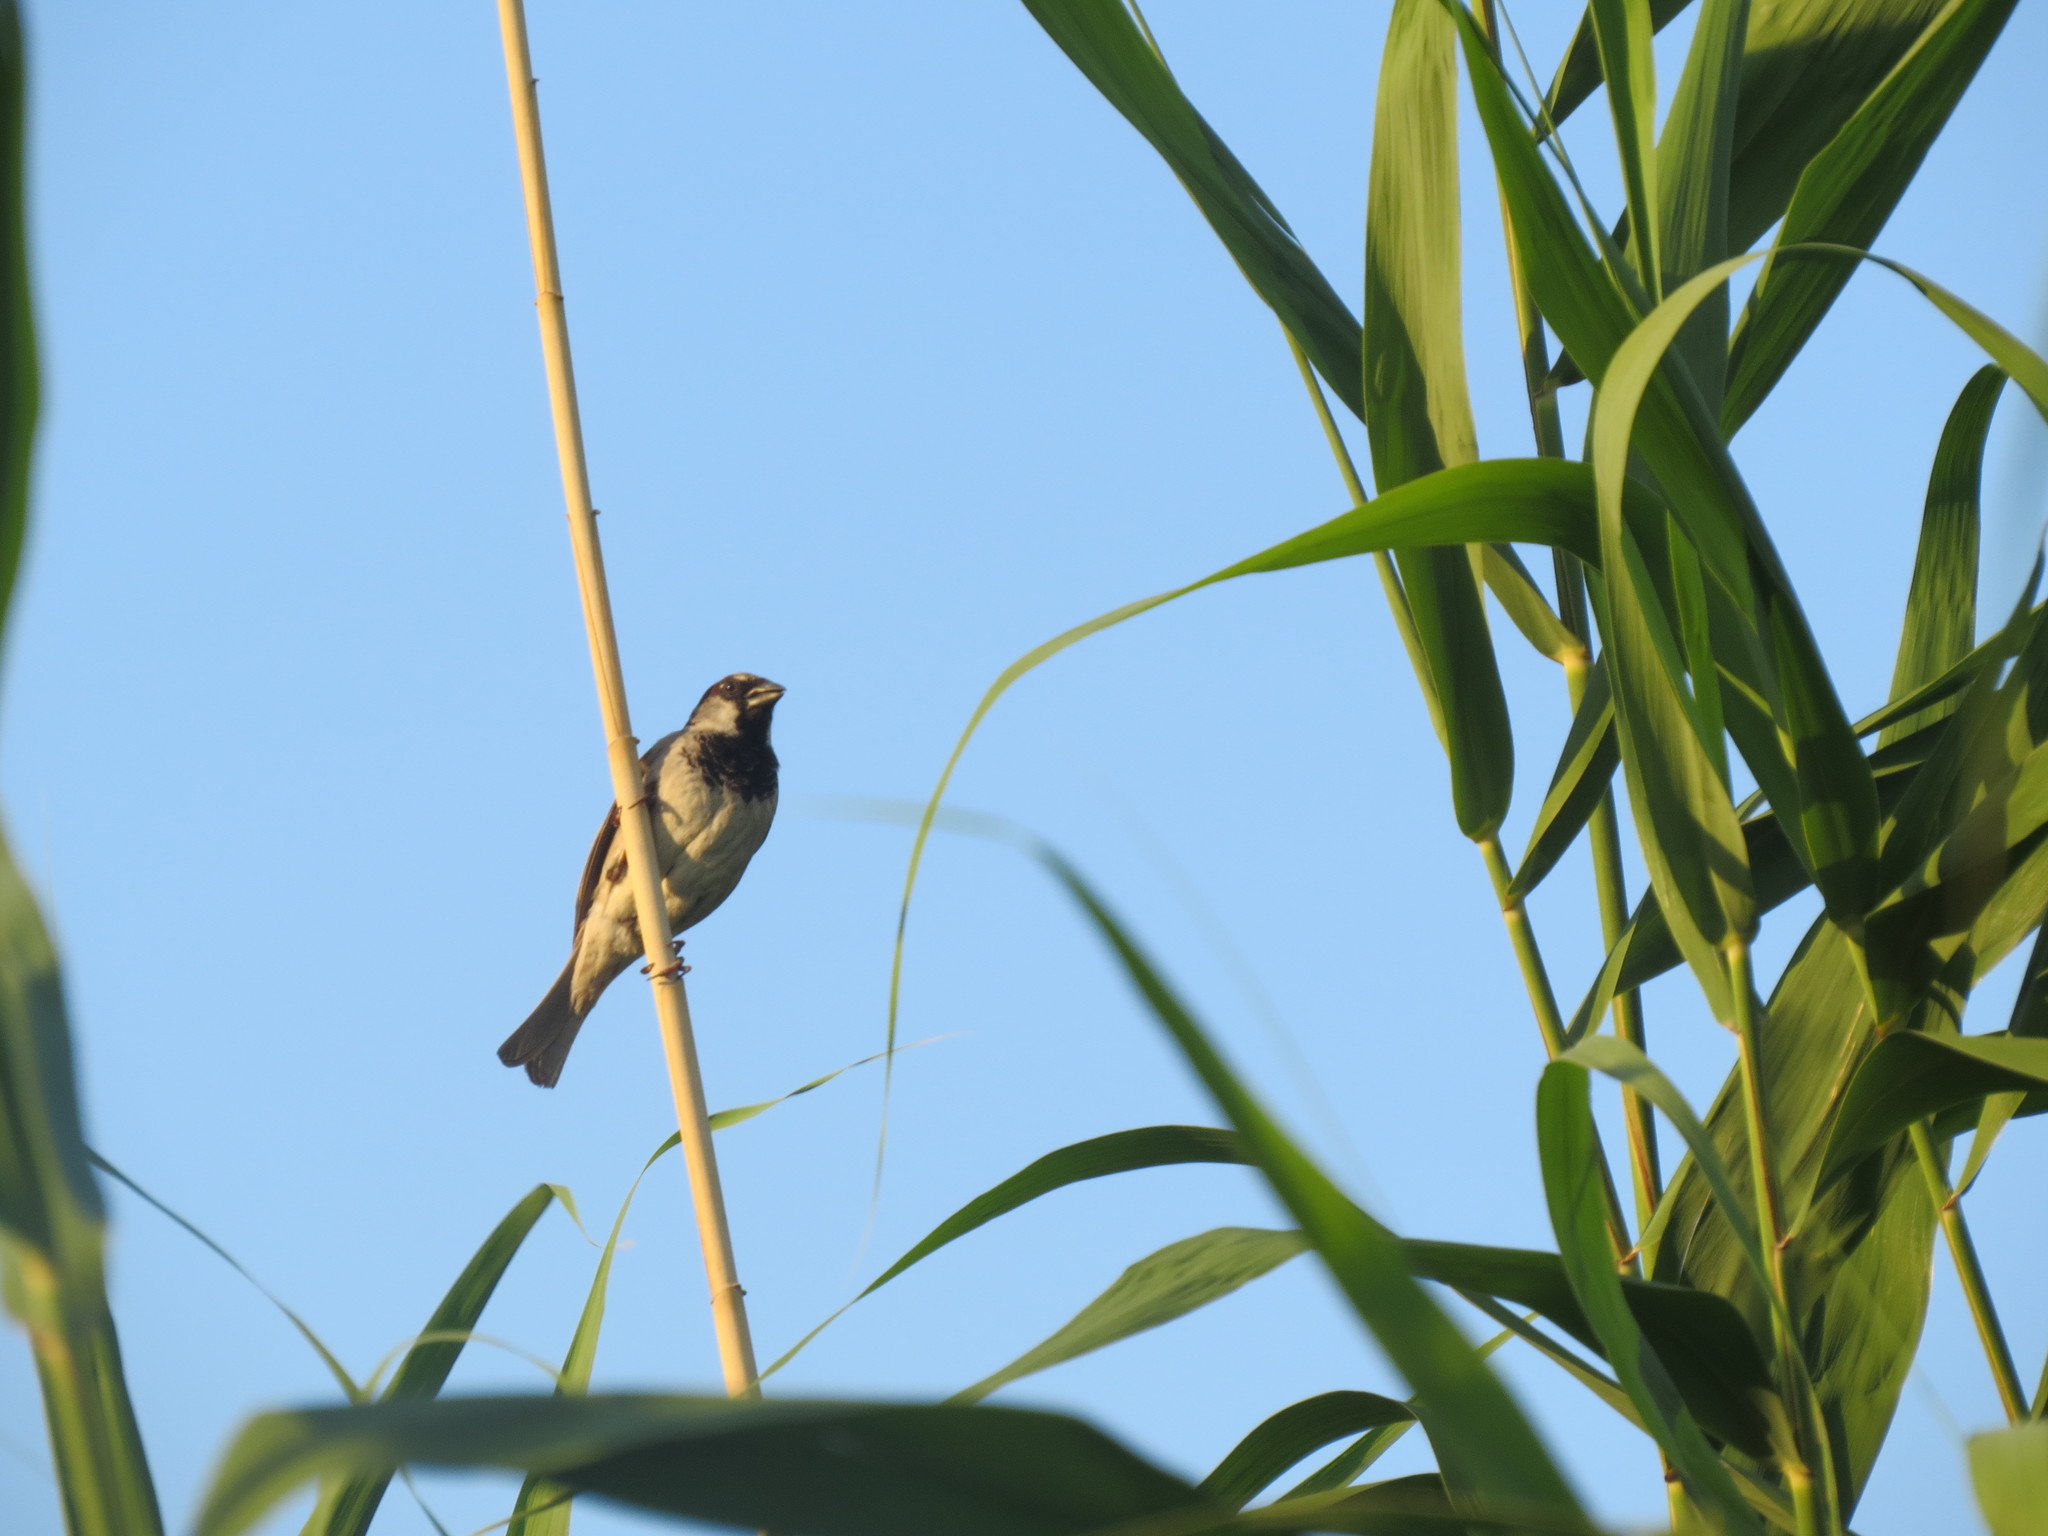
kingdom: Animalia
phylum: Chordata
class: Aves
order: Passeriformes
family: Passeridae
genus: Passer
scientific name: Passer domesticus
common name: House sparrow
